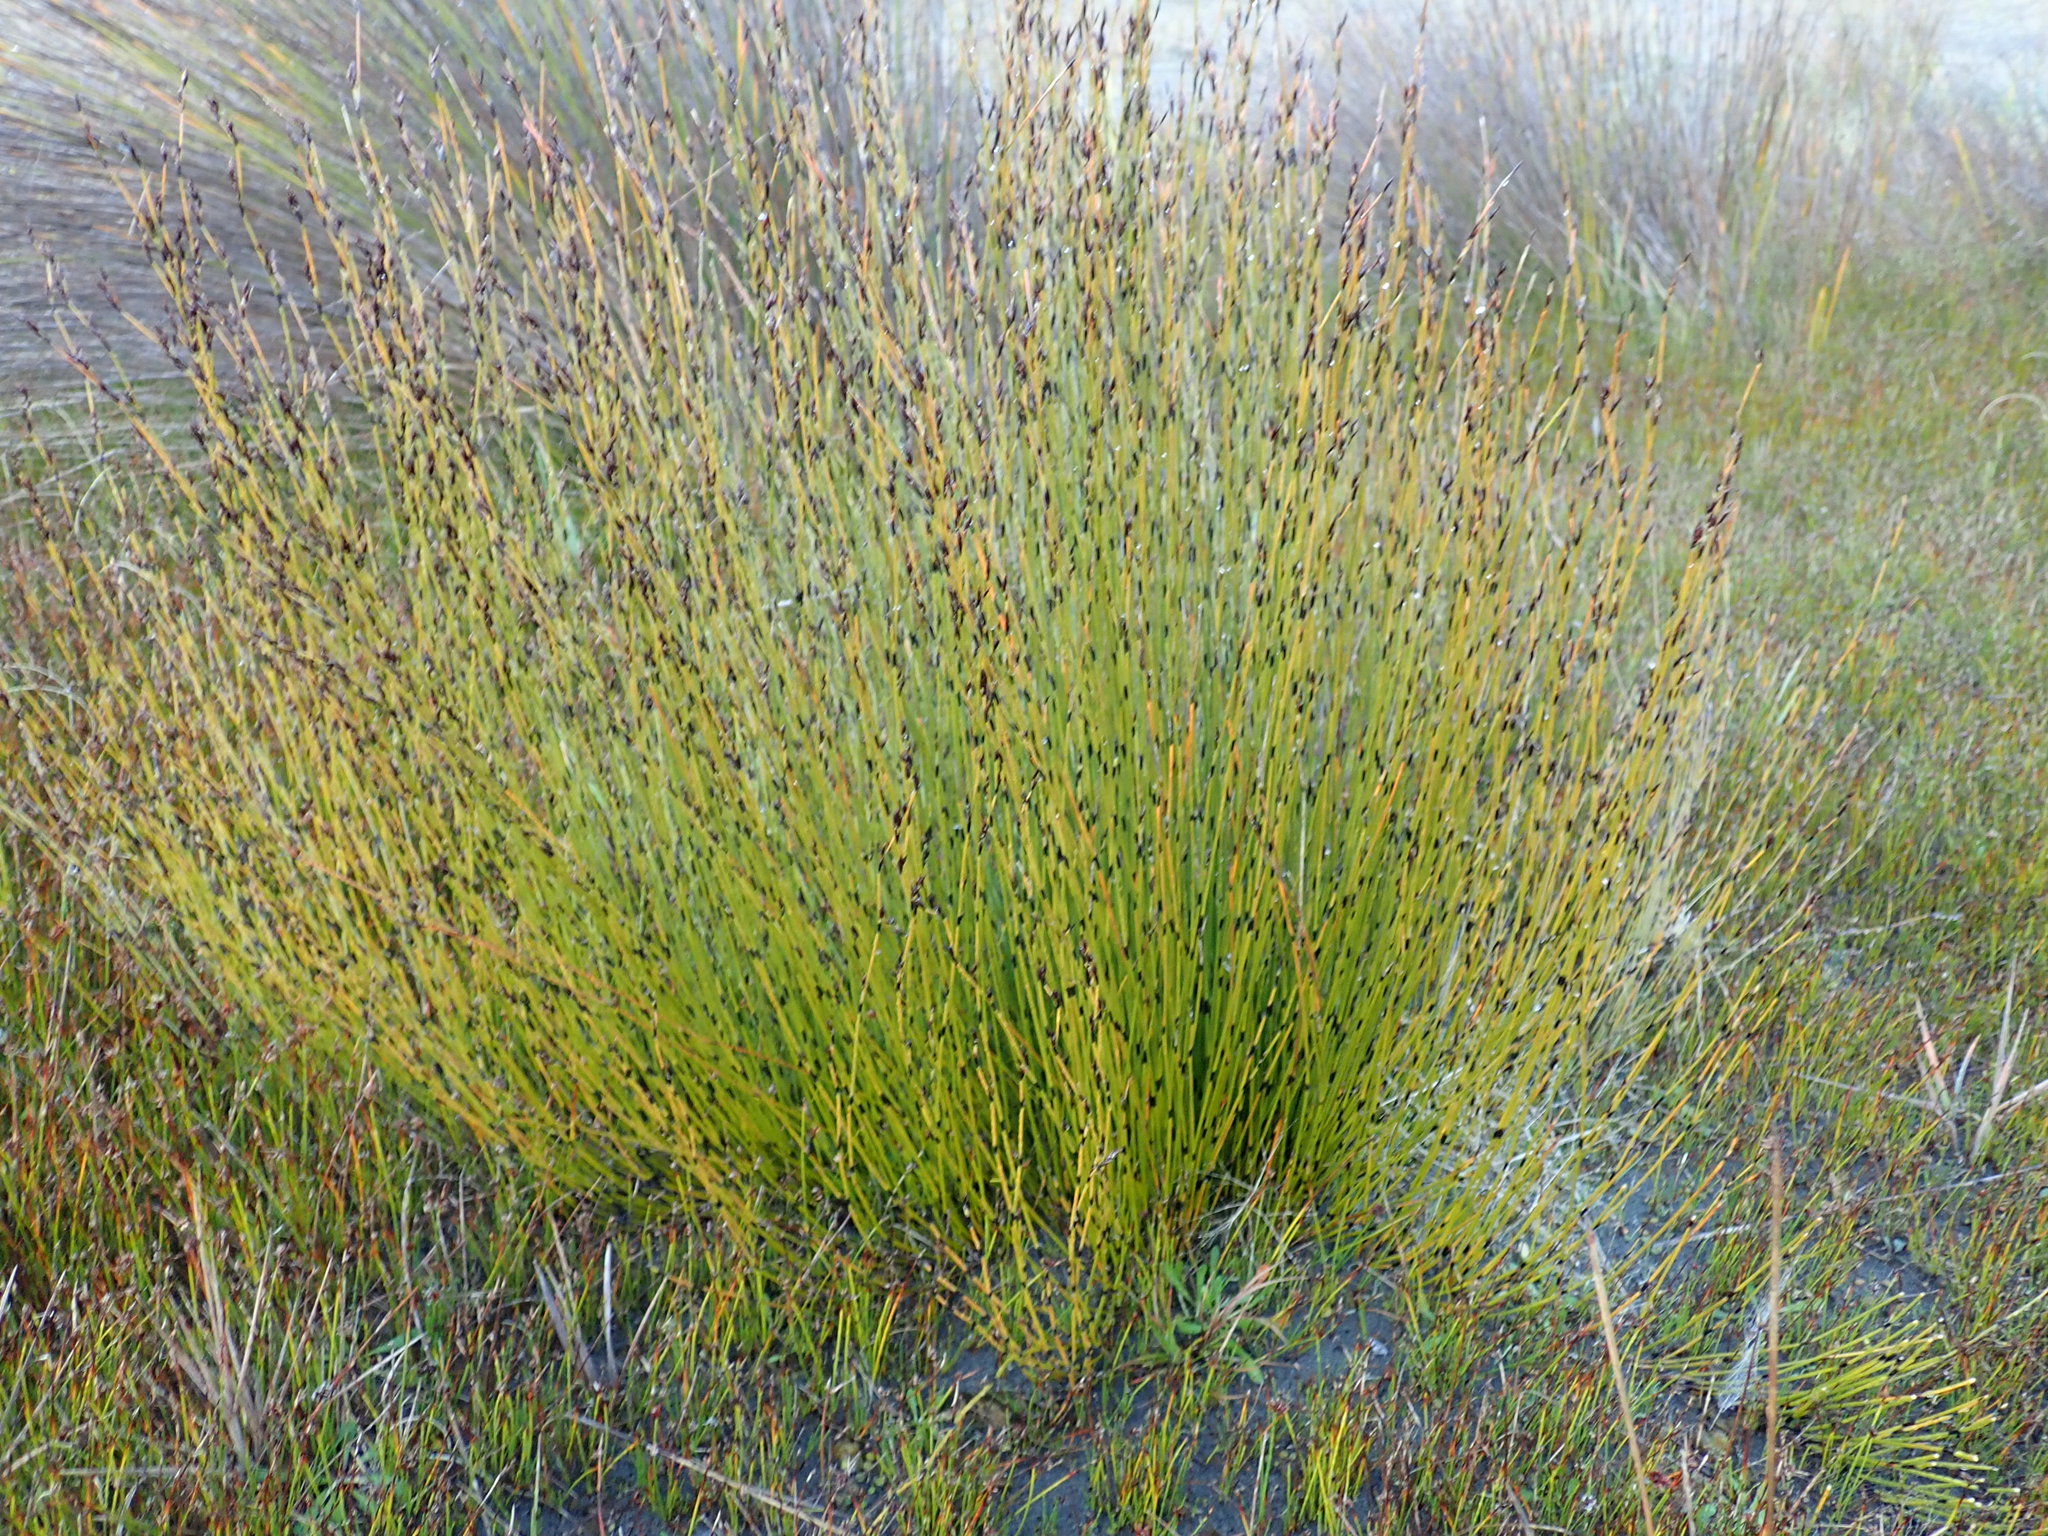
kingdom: Plantae
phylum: Tracheophyta
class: Liliopsida
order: Poales
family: Restionaceae
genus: Apodasmia
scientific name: Apodasmia similis
